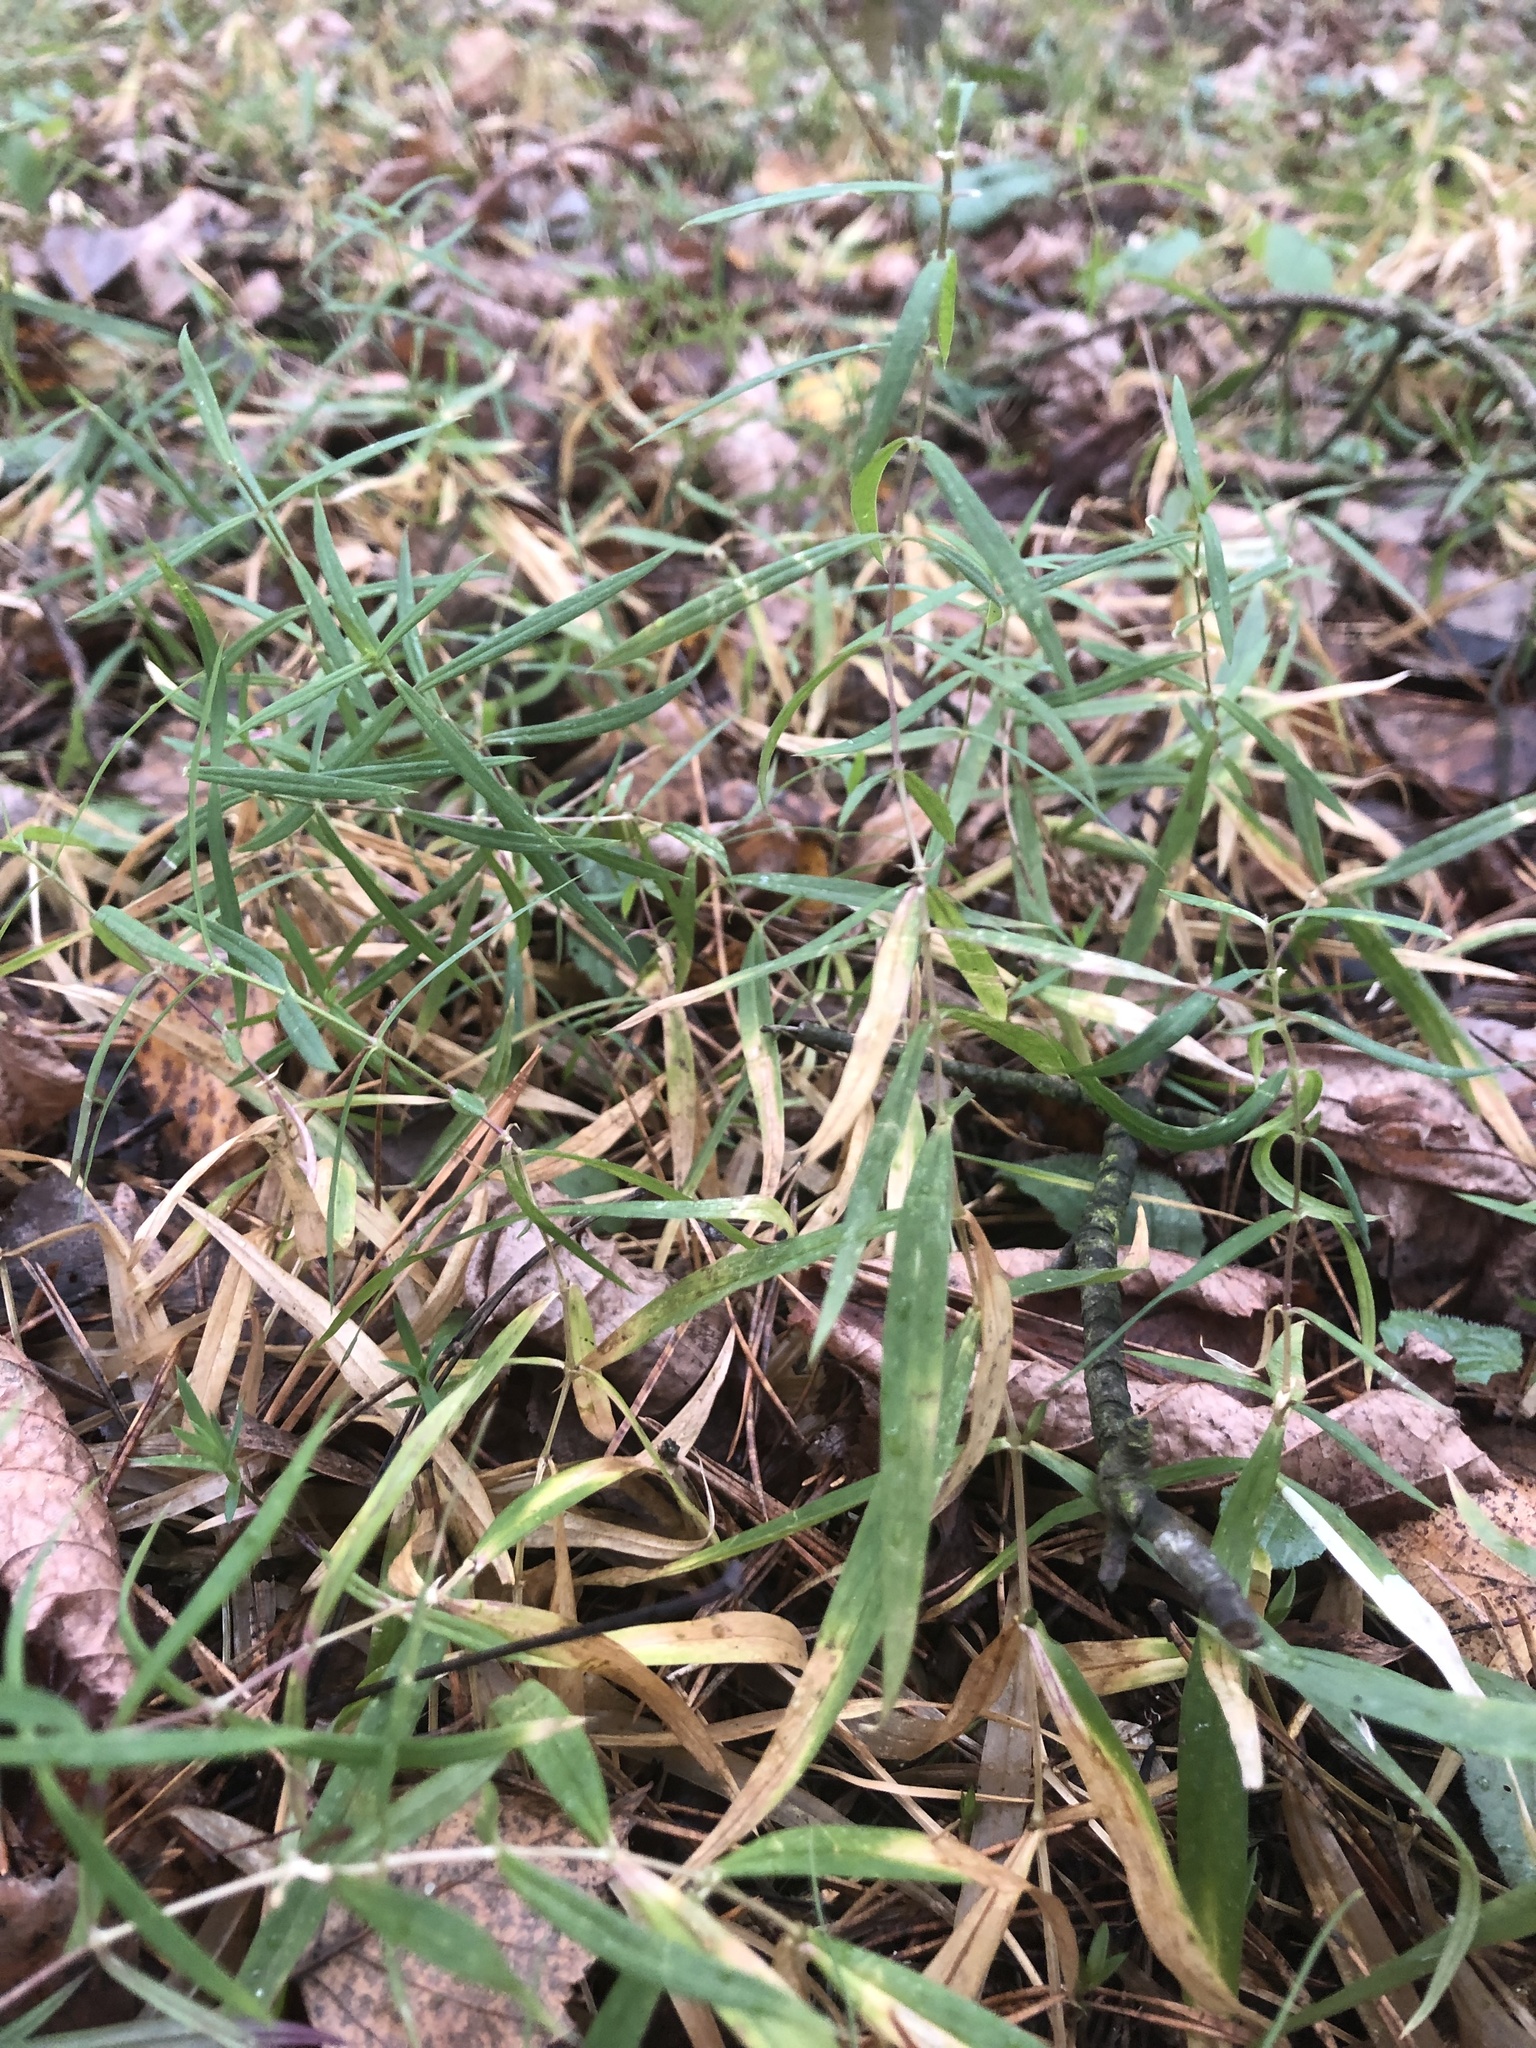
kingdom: Plantae
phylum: Tracheophyta
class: Magnoliopsida
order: Caryophyllales
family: Caryophyllaceae
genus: Rabelera
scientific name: Rabelera holostea
